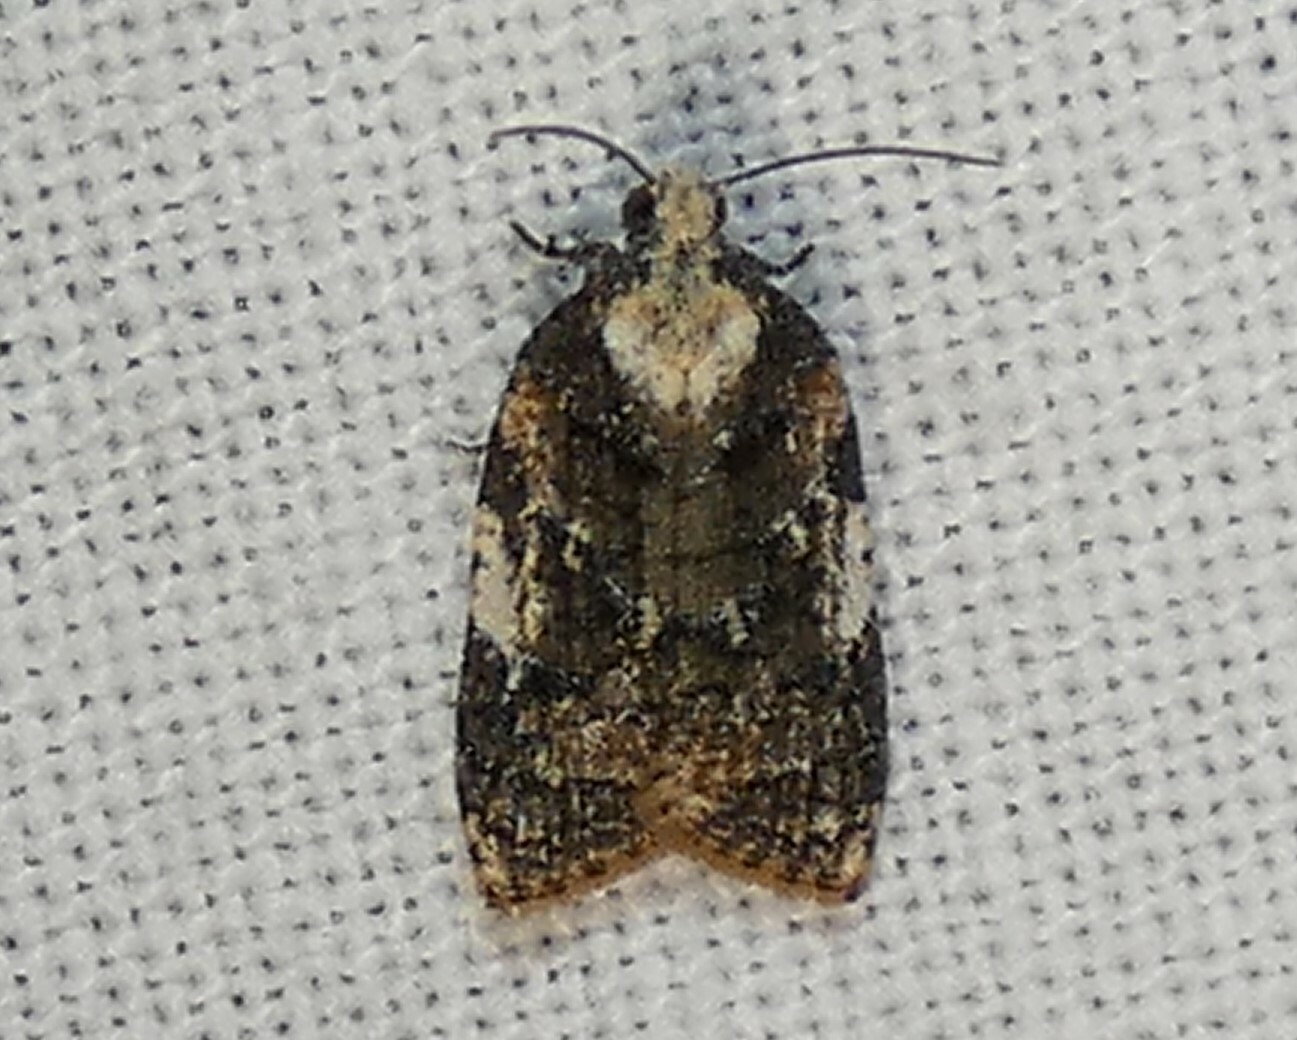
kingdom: Animalia
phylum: Arthropoda
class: Insecta
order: Lepidoptera
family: Tortricidae
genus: Platynota
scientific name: Platynota exasperatana
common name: Exasperating platynota moth
